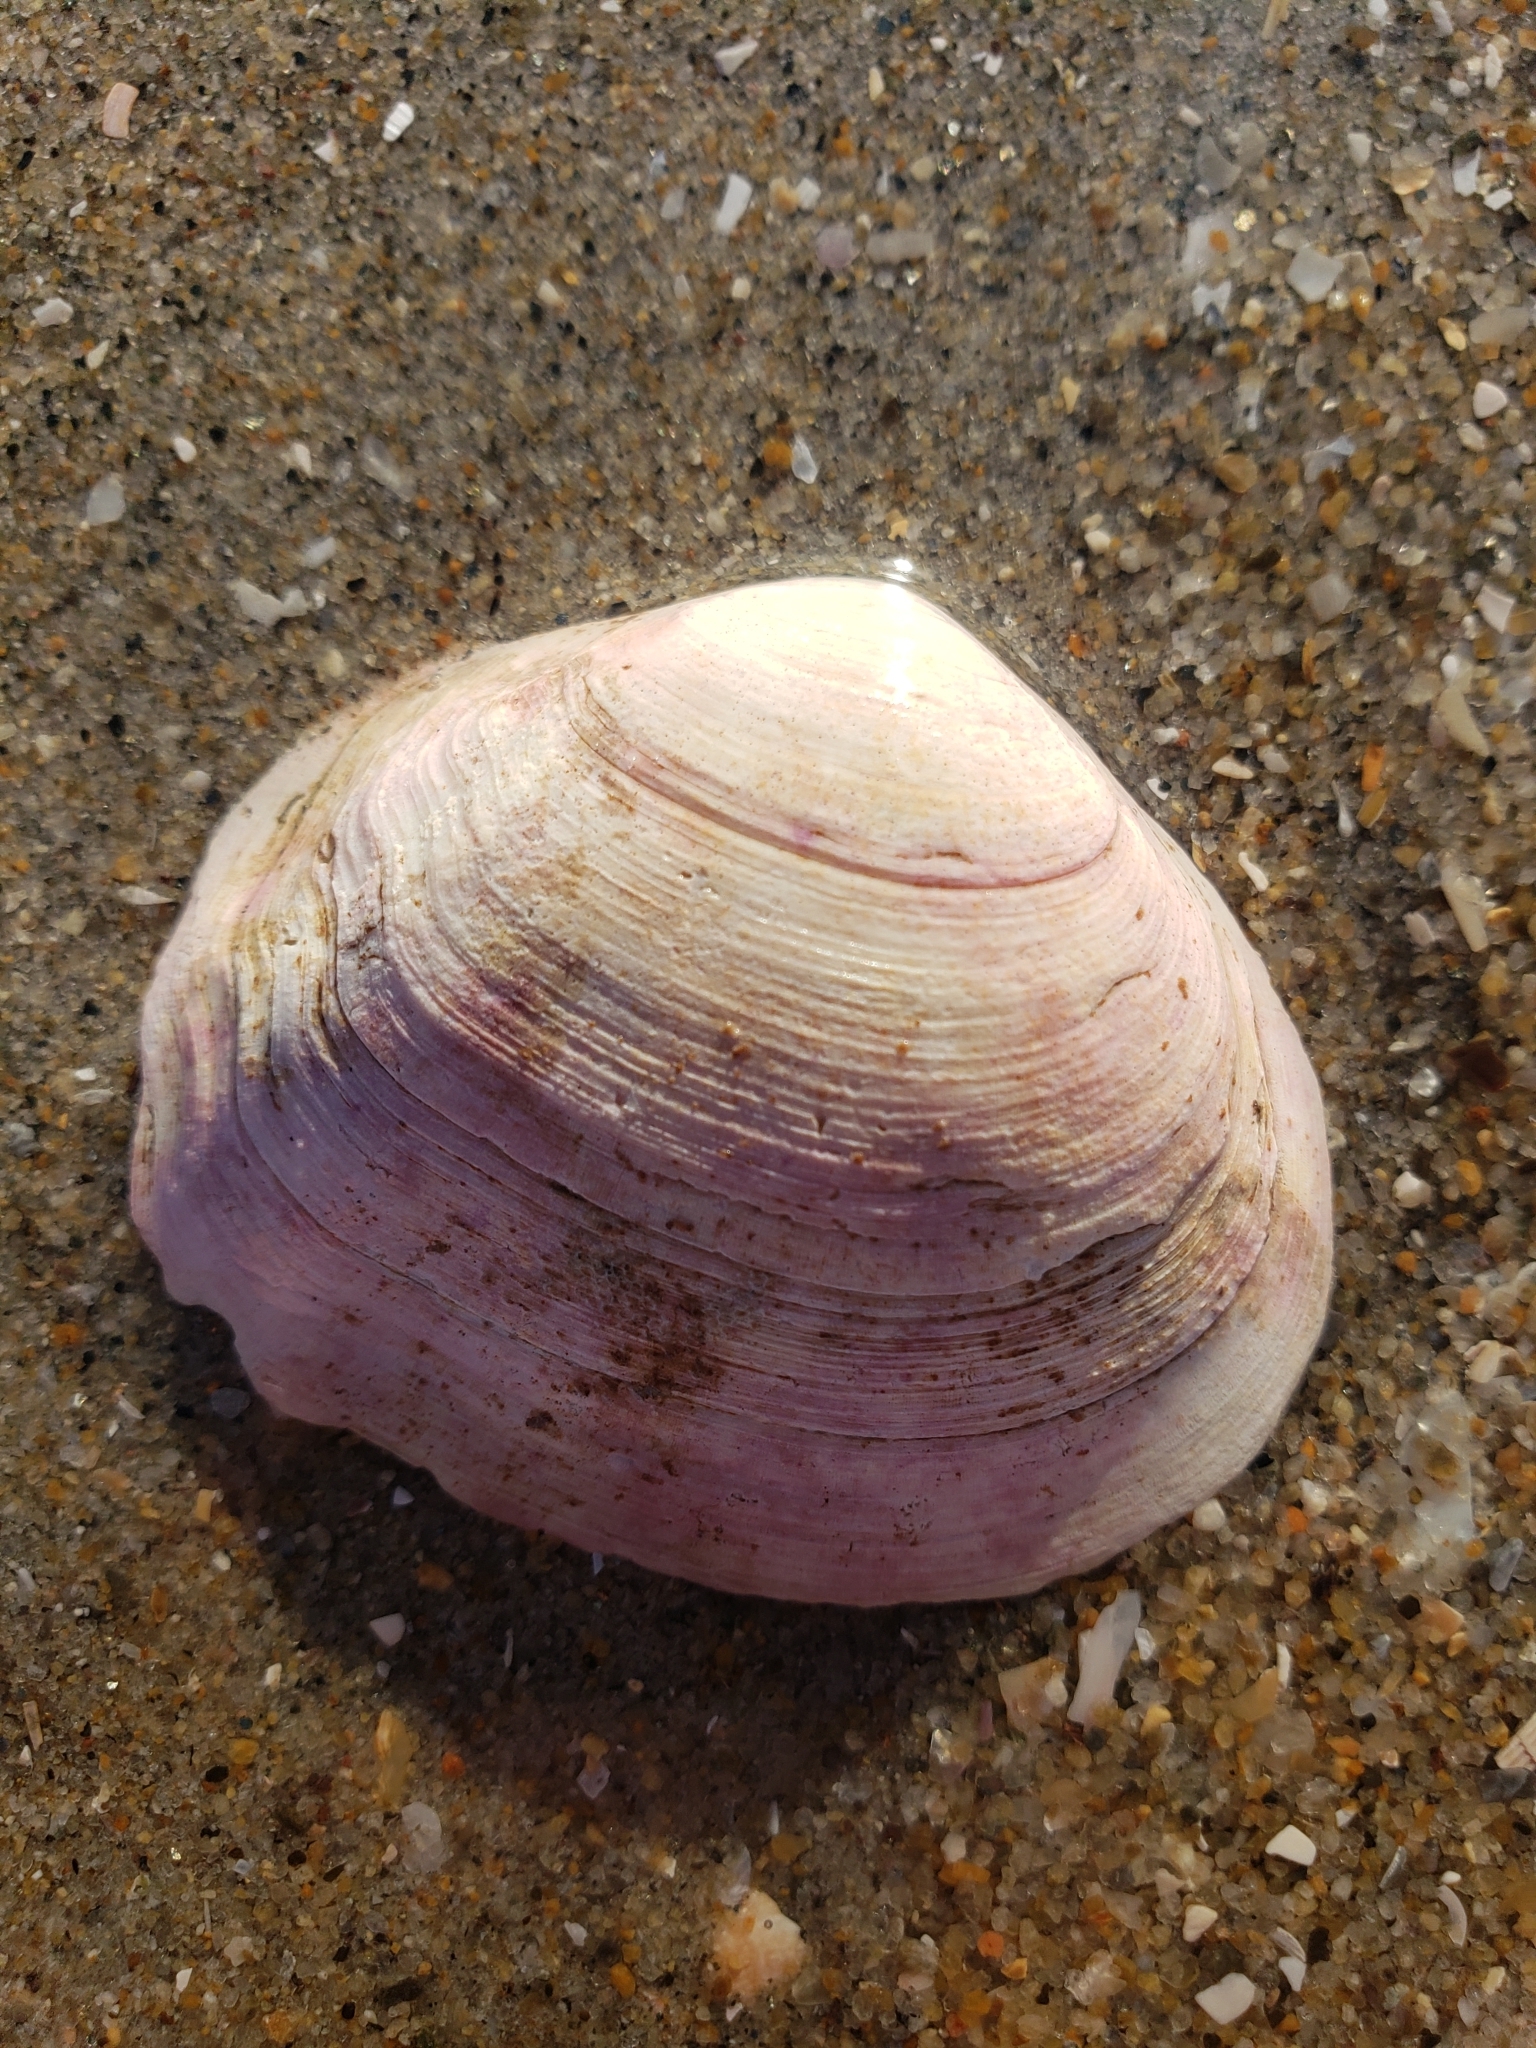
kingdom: Animalia
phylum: Mollusca
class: Bivalvia
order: Cardiida
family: Tellinidae
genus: Leporimetis
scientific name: Leporimetis obesa
